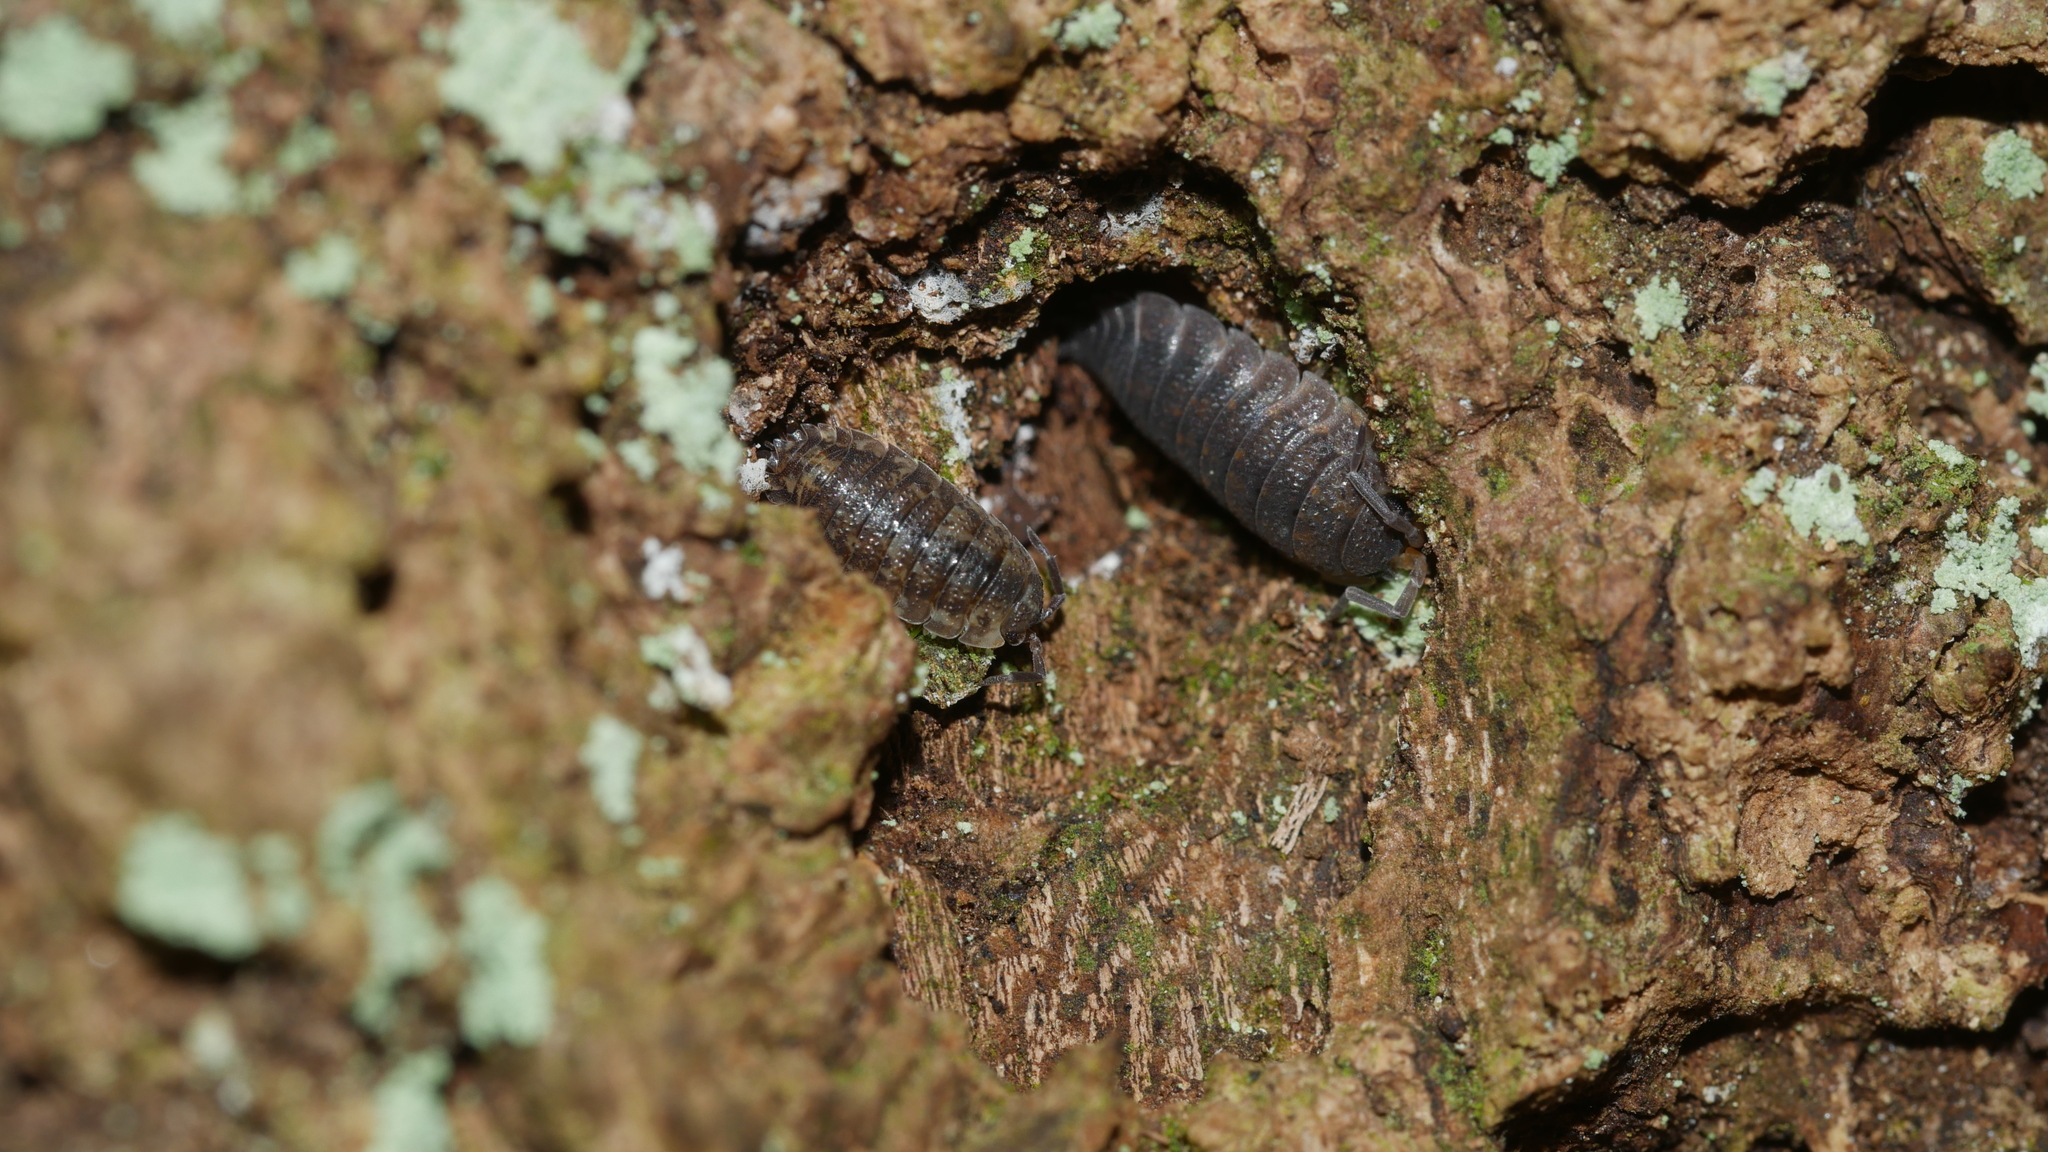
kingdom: Animalia
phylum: Arthropoda
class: Malacostraca
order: Isopoda
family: Porcellionidae
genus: Porcellio
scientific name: Porcellio scaber
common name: Common rough woodlouse
